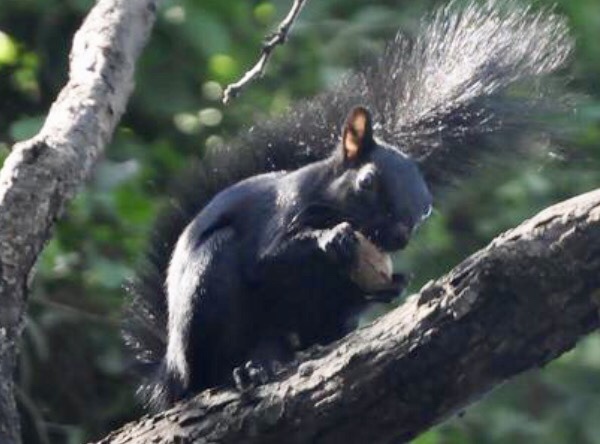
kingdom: Animalia
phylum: Chordata
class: Mammalia
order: Rodentia
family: Sciuridae
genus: Sciurus
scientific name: Sciurus aureogaster
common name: Red-bellied squirrel
